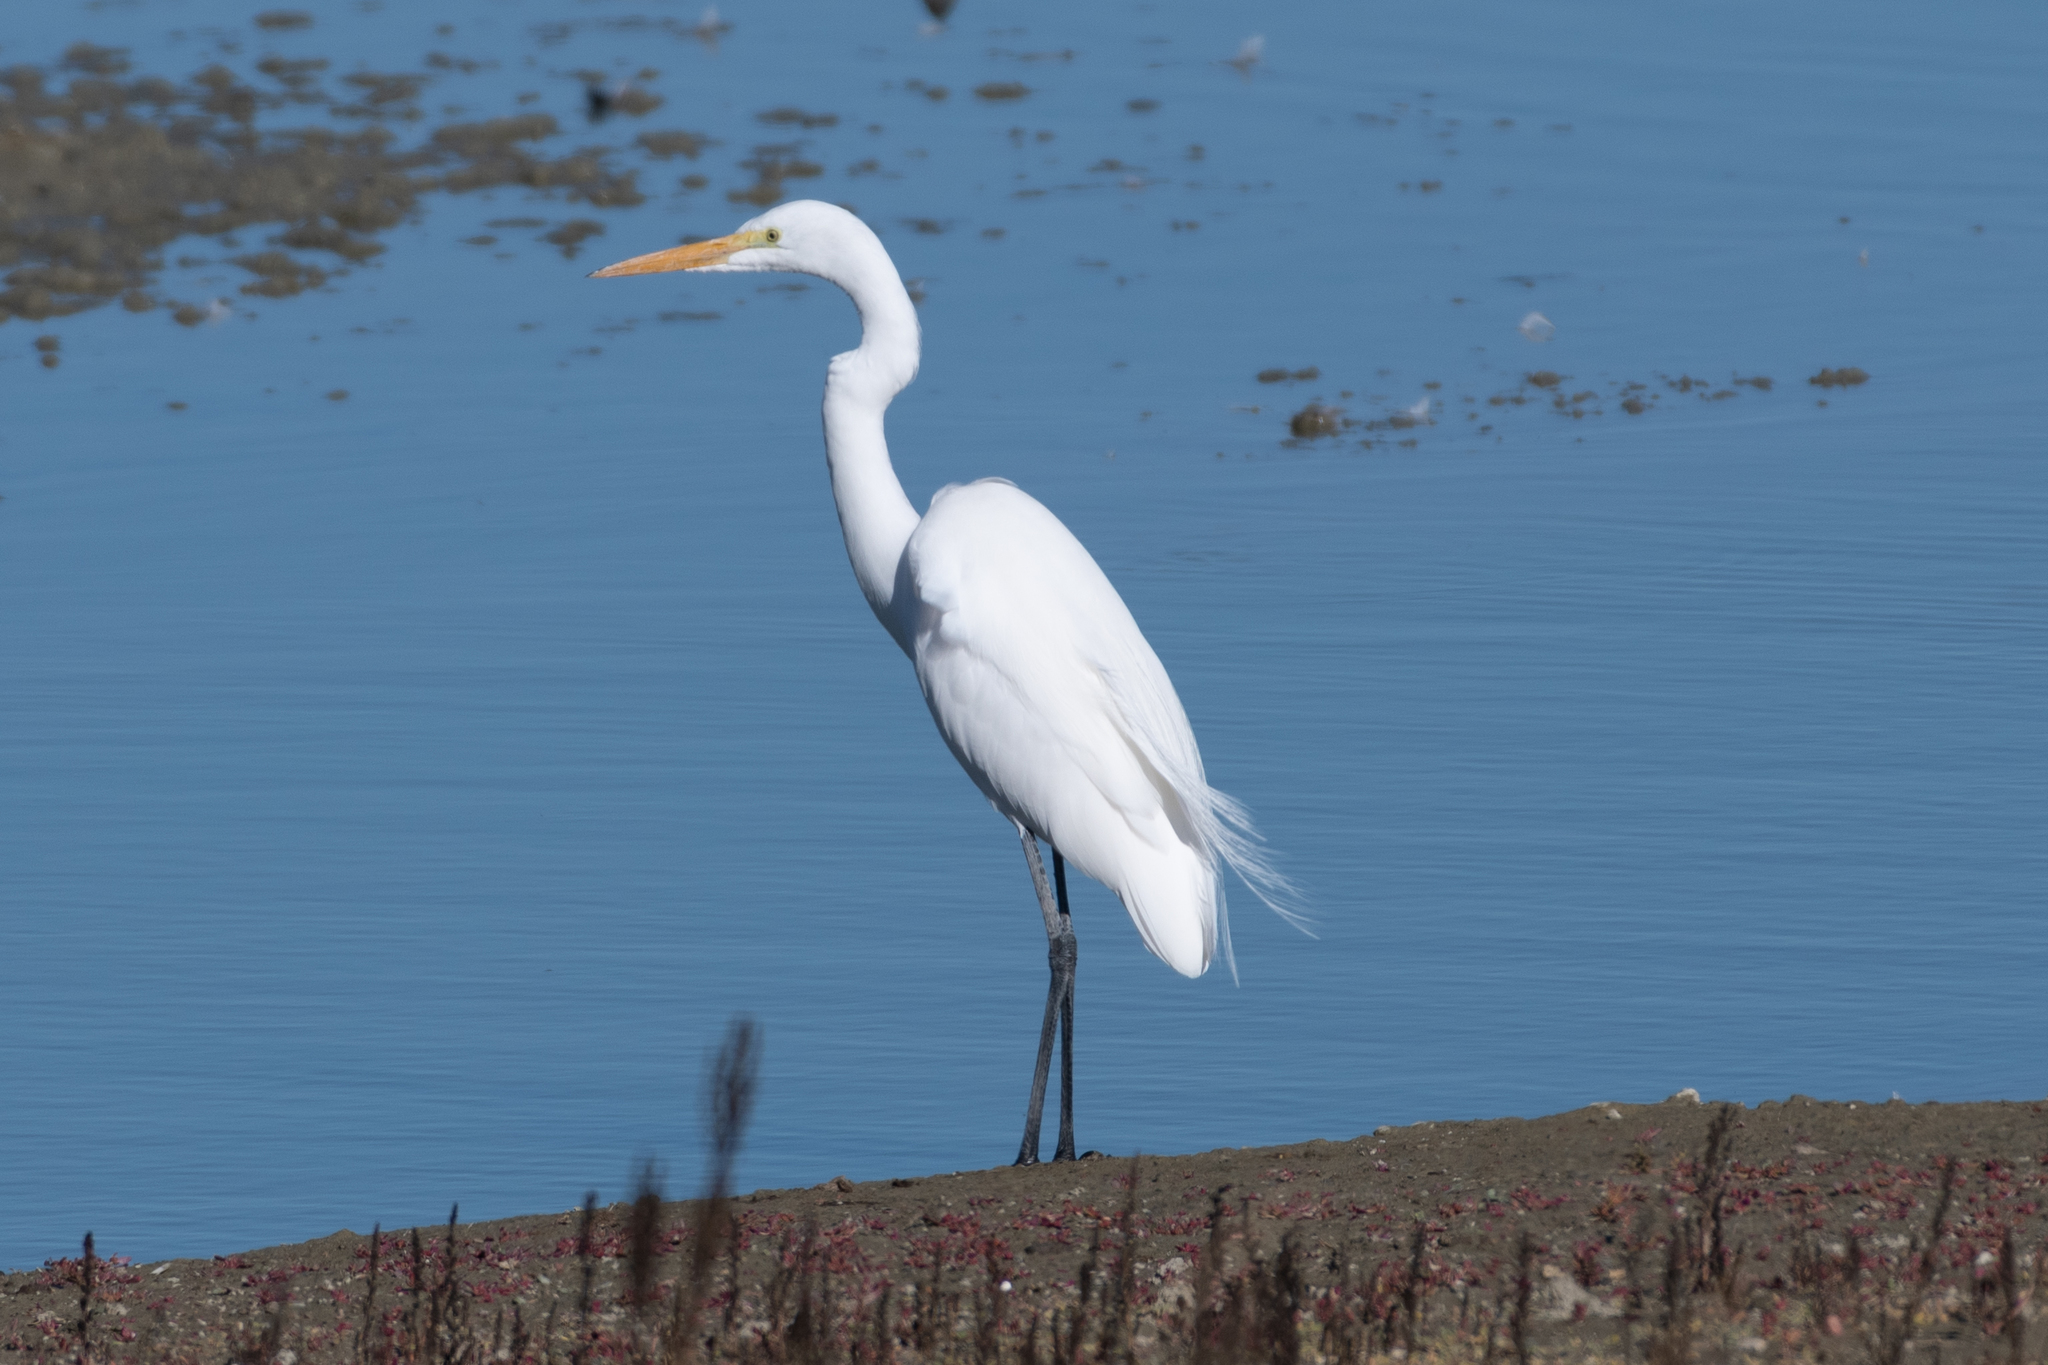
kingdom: Animalia
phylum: Chordata
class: Aves
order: Pelecaniformes
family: Ardeidae
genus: Ardea
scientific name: Ardea alba
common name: Great egret
